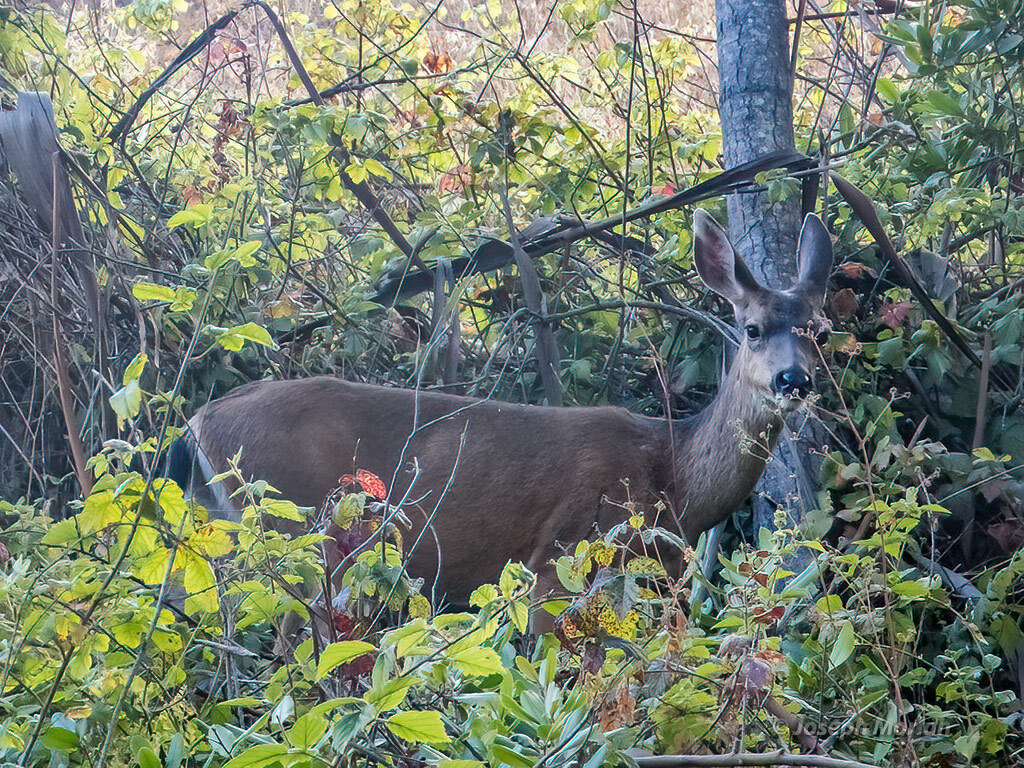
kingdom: Animalia
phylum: Chordata
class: Mammalia
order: Artiodactyla
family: Cervidae
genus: Odocoileus
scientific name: Odocoileus hemionus
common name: Mule deer
